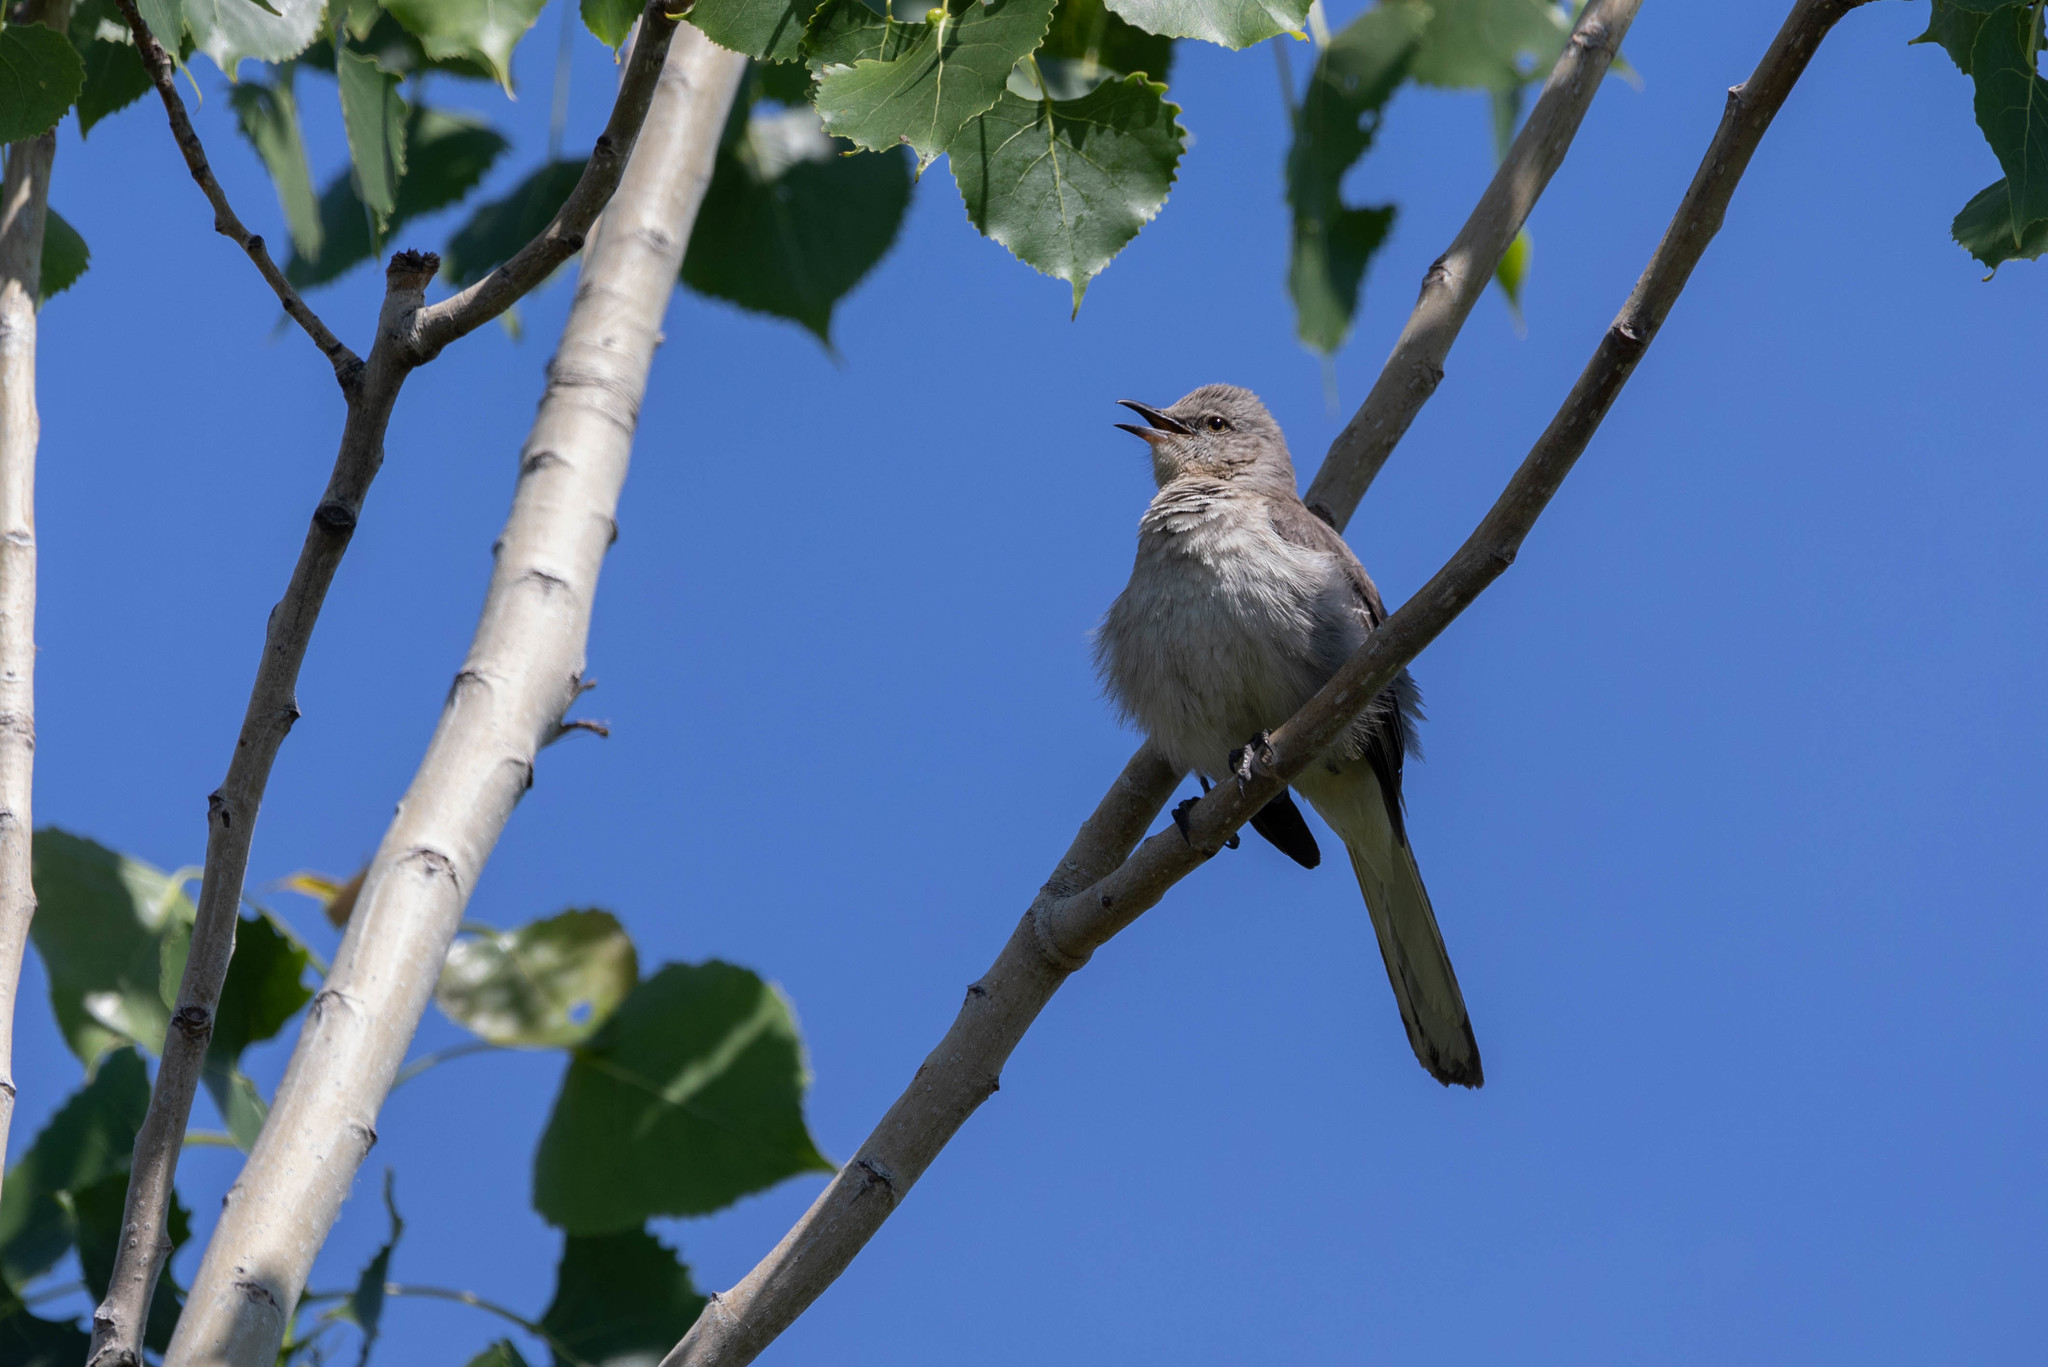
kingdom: Animalia
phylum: Chordata
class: Aves
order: Passeriformes
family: Mimidae
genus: Mimus
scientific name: Mimus polyglottos
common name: Northern mockingbird
